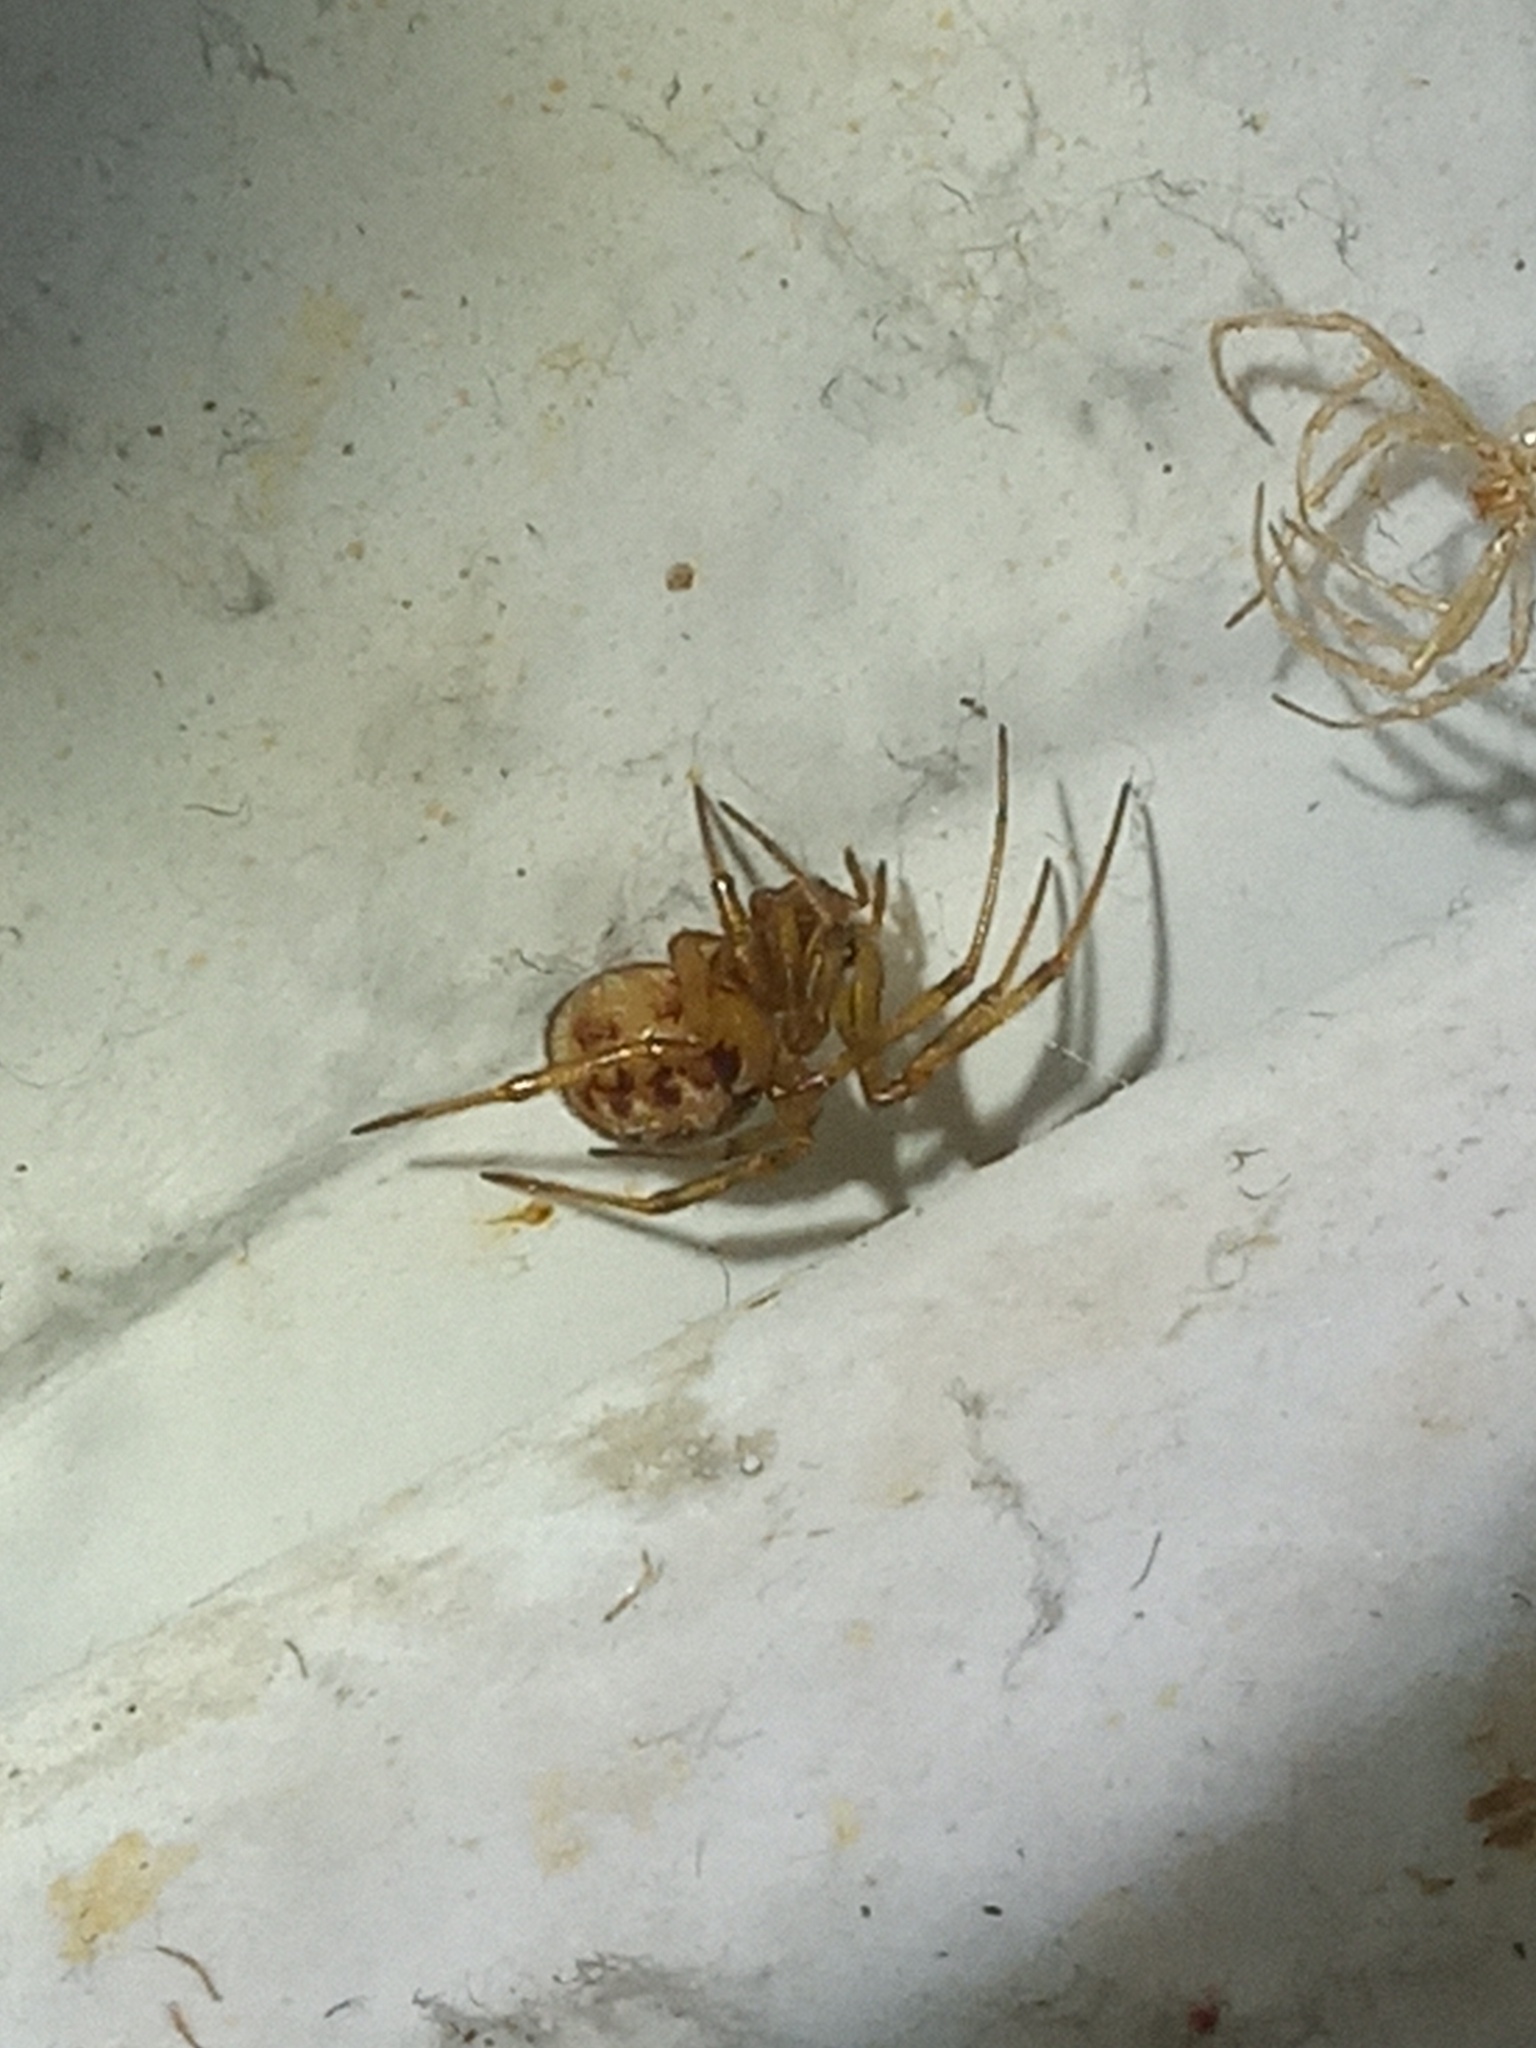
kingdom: Animalia
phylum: Arthropoda
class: Arachnida
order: Araneae
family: Theridiidae
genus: Steatoda
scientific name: Steatoda triangulosa
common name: Triangulate bud spider
